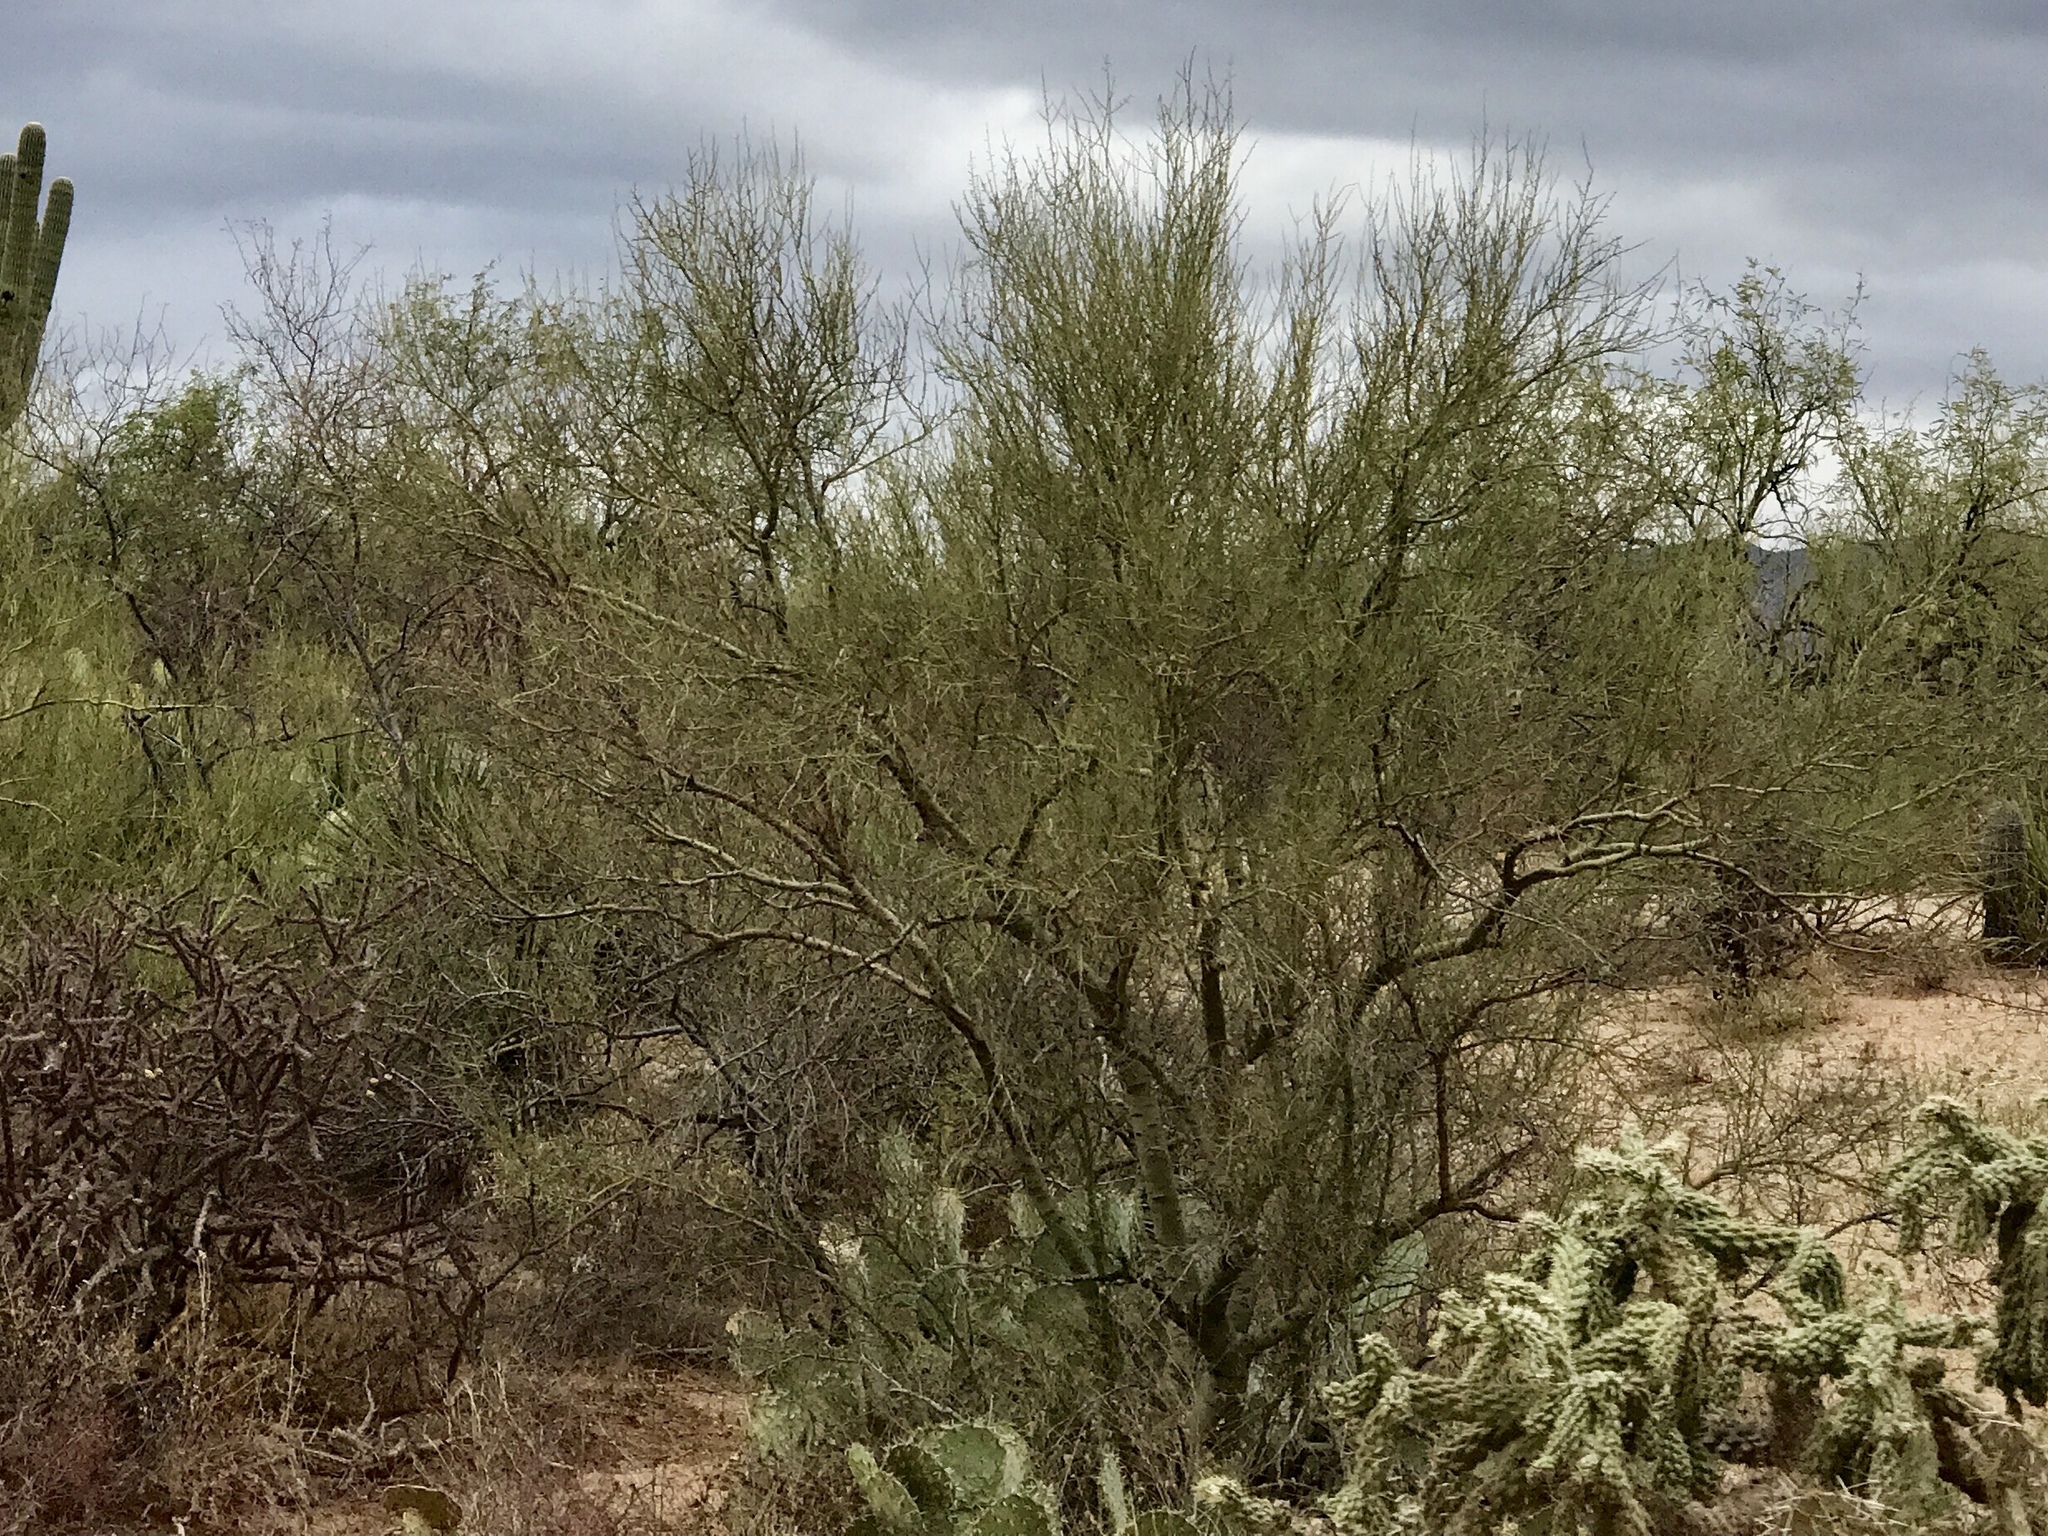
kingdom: Plantae
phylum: Tracheophyta
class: Magnoliopsida
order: Fabales
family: Fabaceae
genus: Parkinsonia
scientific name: Parkinsonia microphylla
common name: Yellow paloverde
